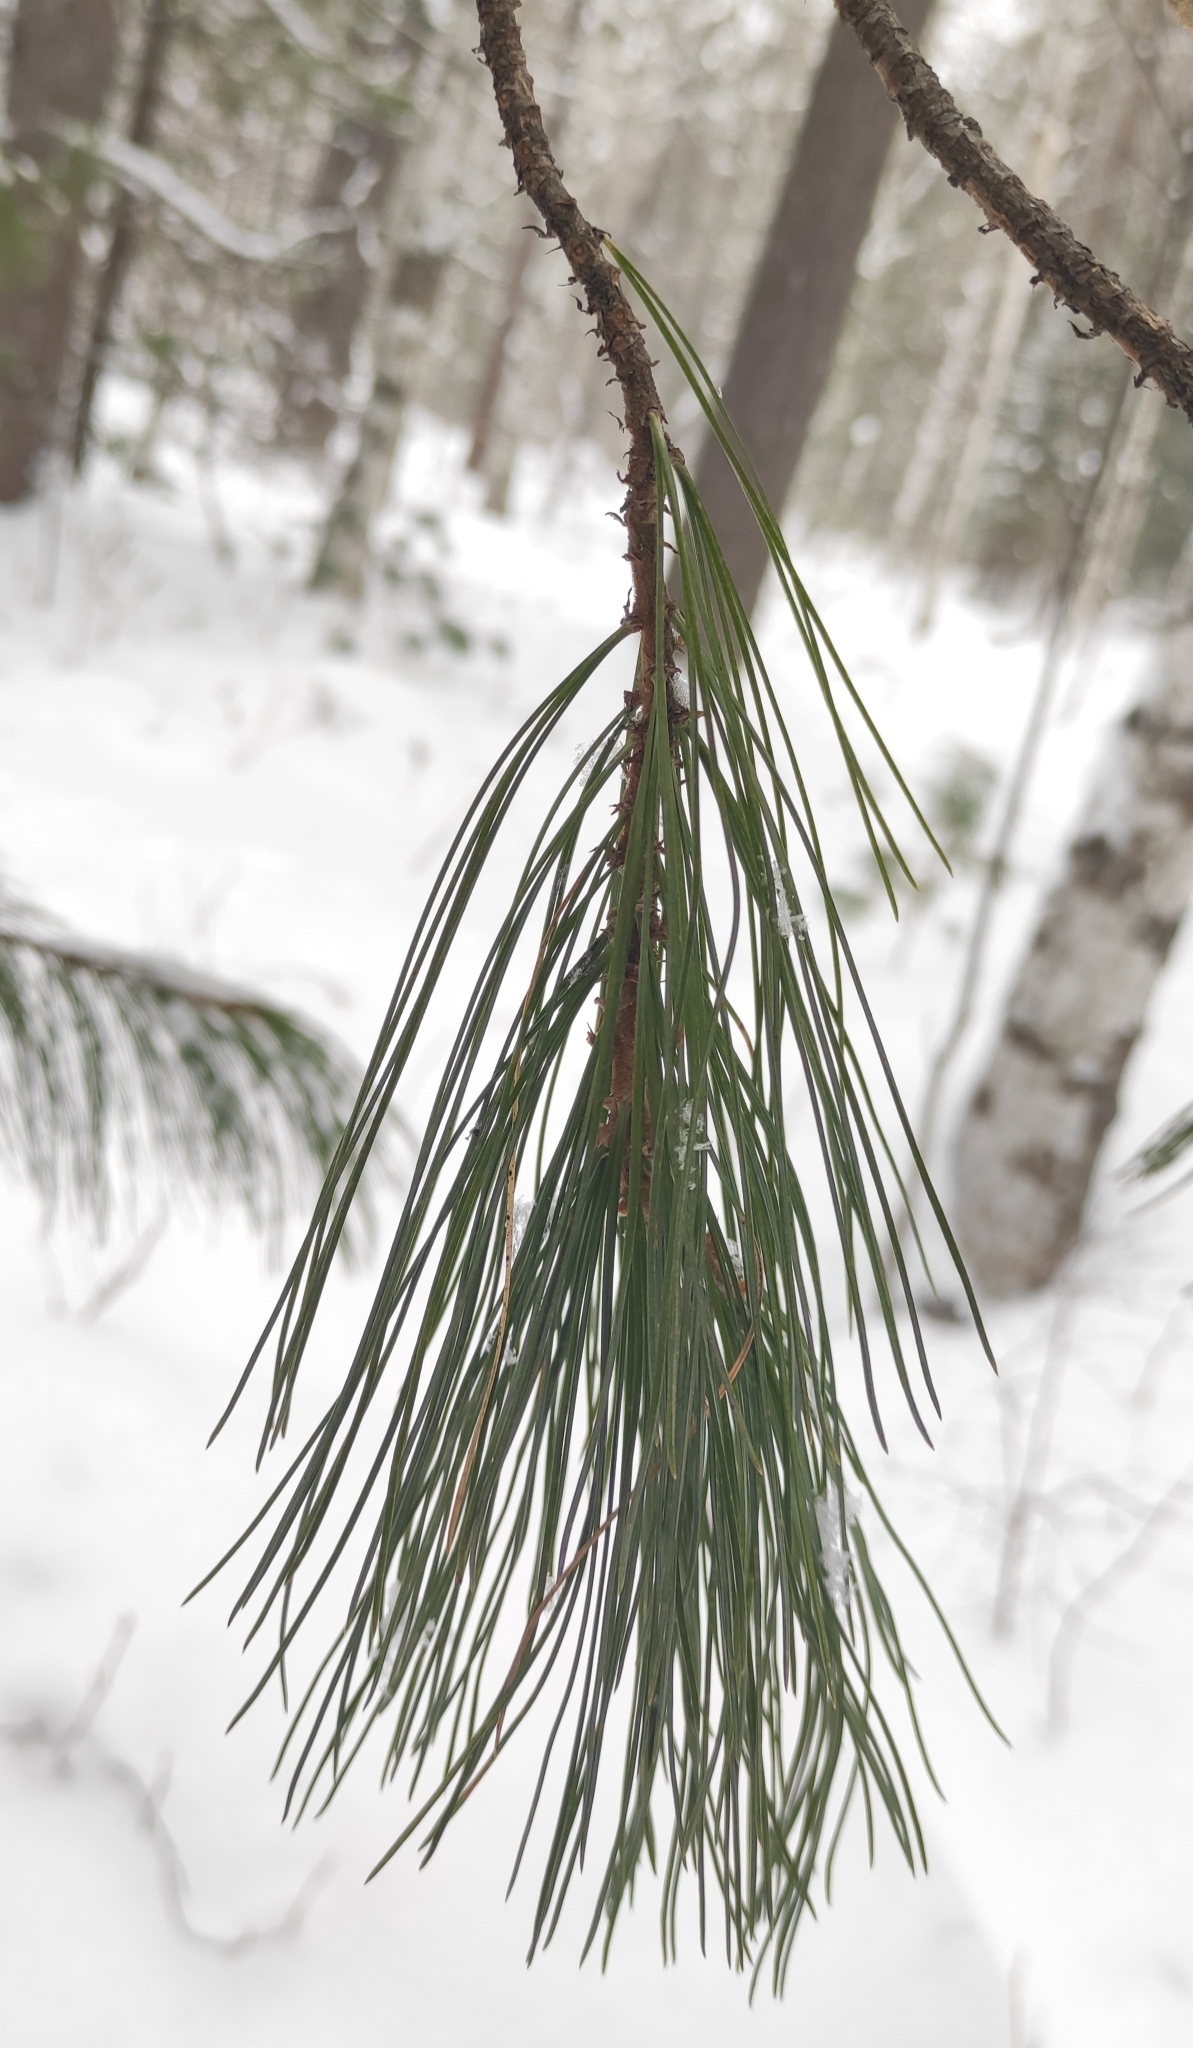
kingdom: Plantae
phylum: Tracheophyta
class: Pinopsida
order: Pinales
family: Pinaceae
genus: Pinus
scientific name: Pinus sibirica
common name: Siberian pine
